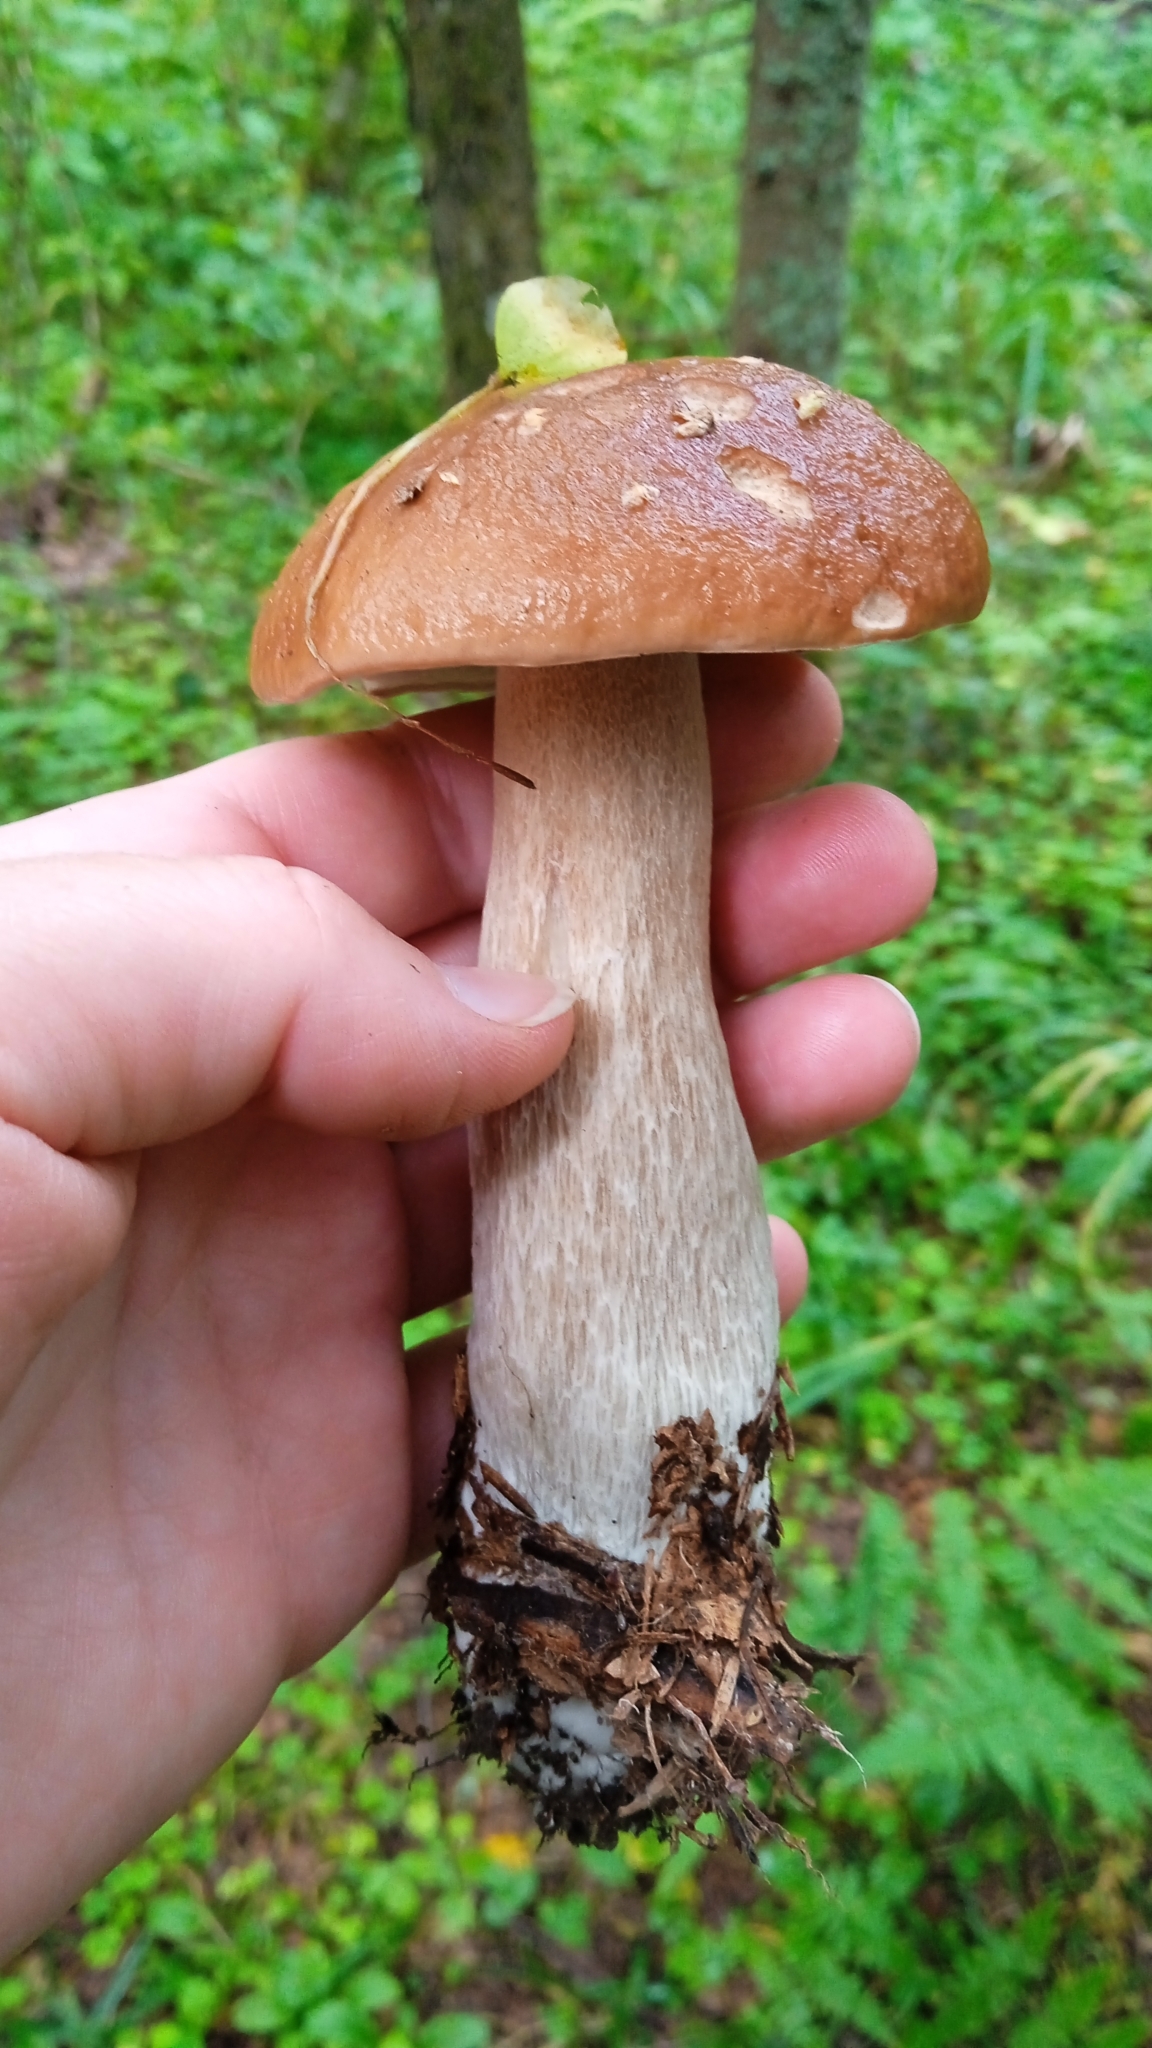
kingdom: Fungi
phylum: Basidiomycota
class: Agaricomycetes
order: Boletales
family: Boletaceae
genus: Boletus
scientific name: Boletus edulis
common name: Cep
